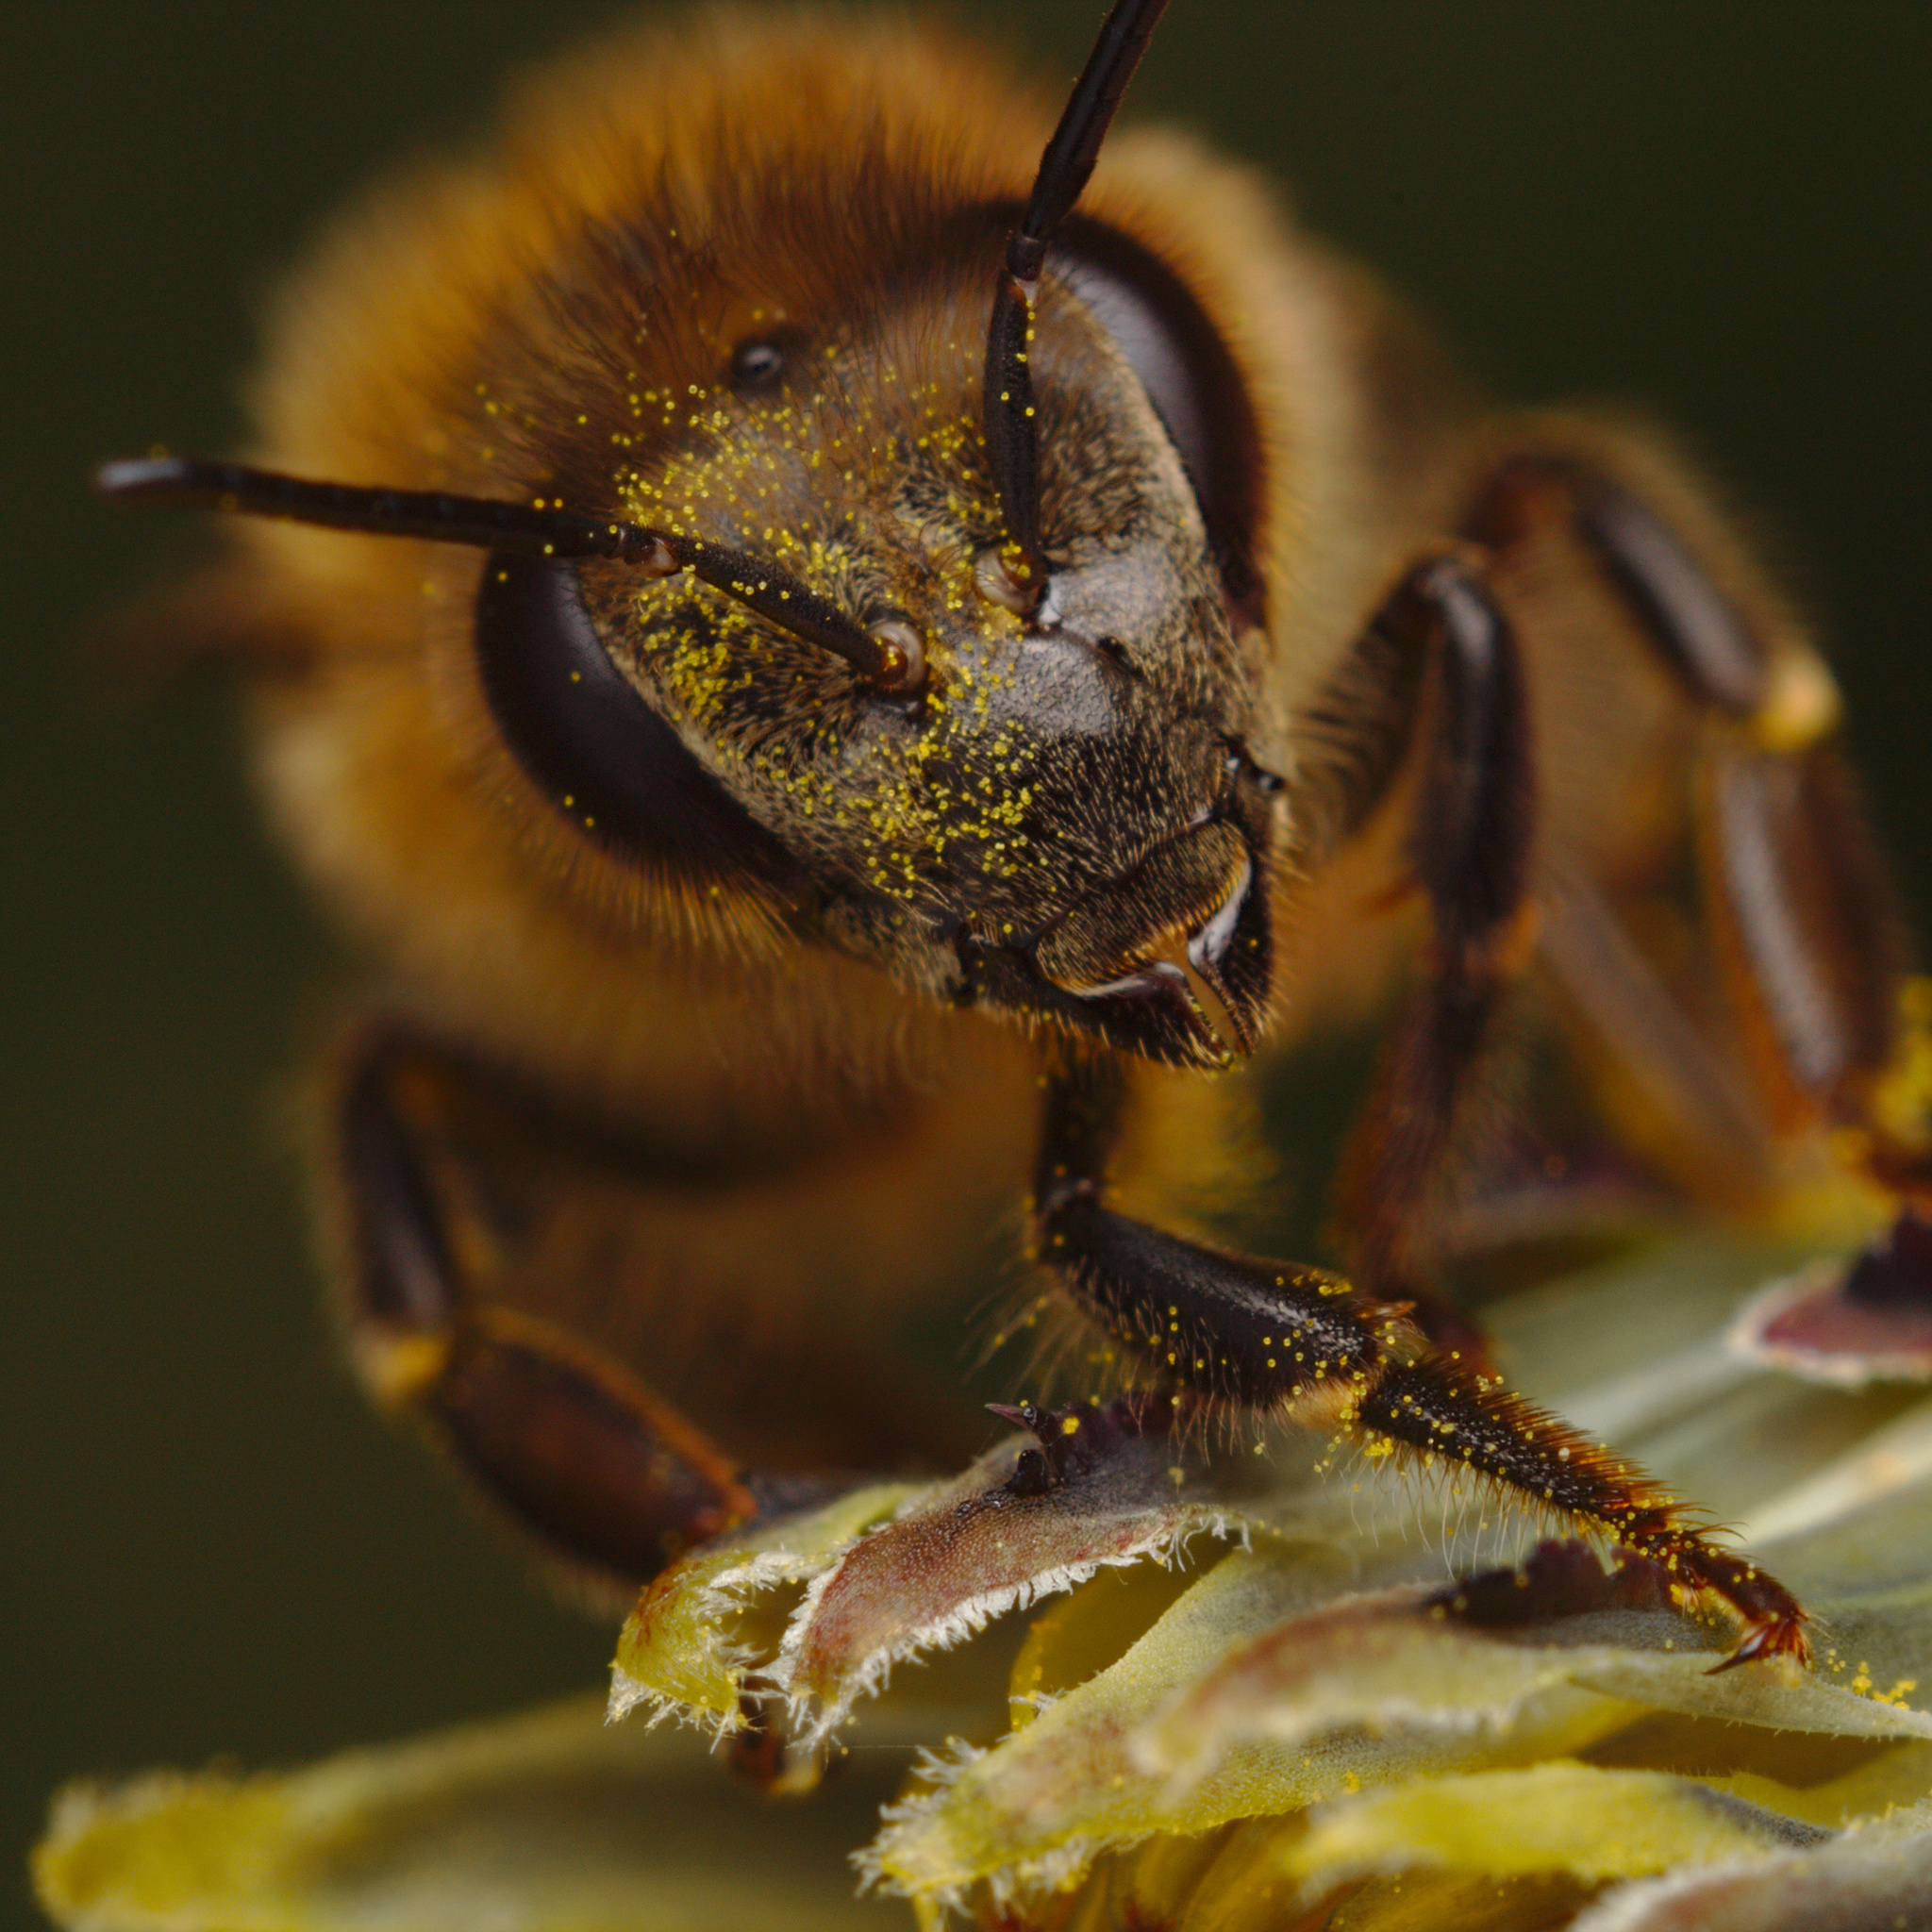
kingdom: Animalia
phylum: Arthropoda
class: Insecta
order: Hymenoptera
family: Apidae
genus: Apis
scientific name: Apis mellifera
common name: Honey bee
